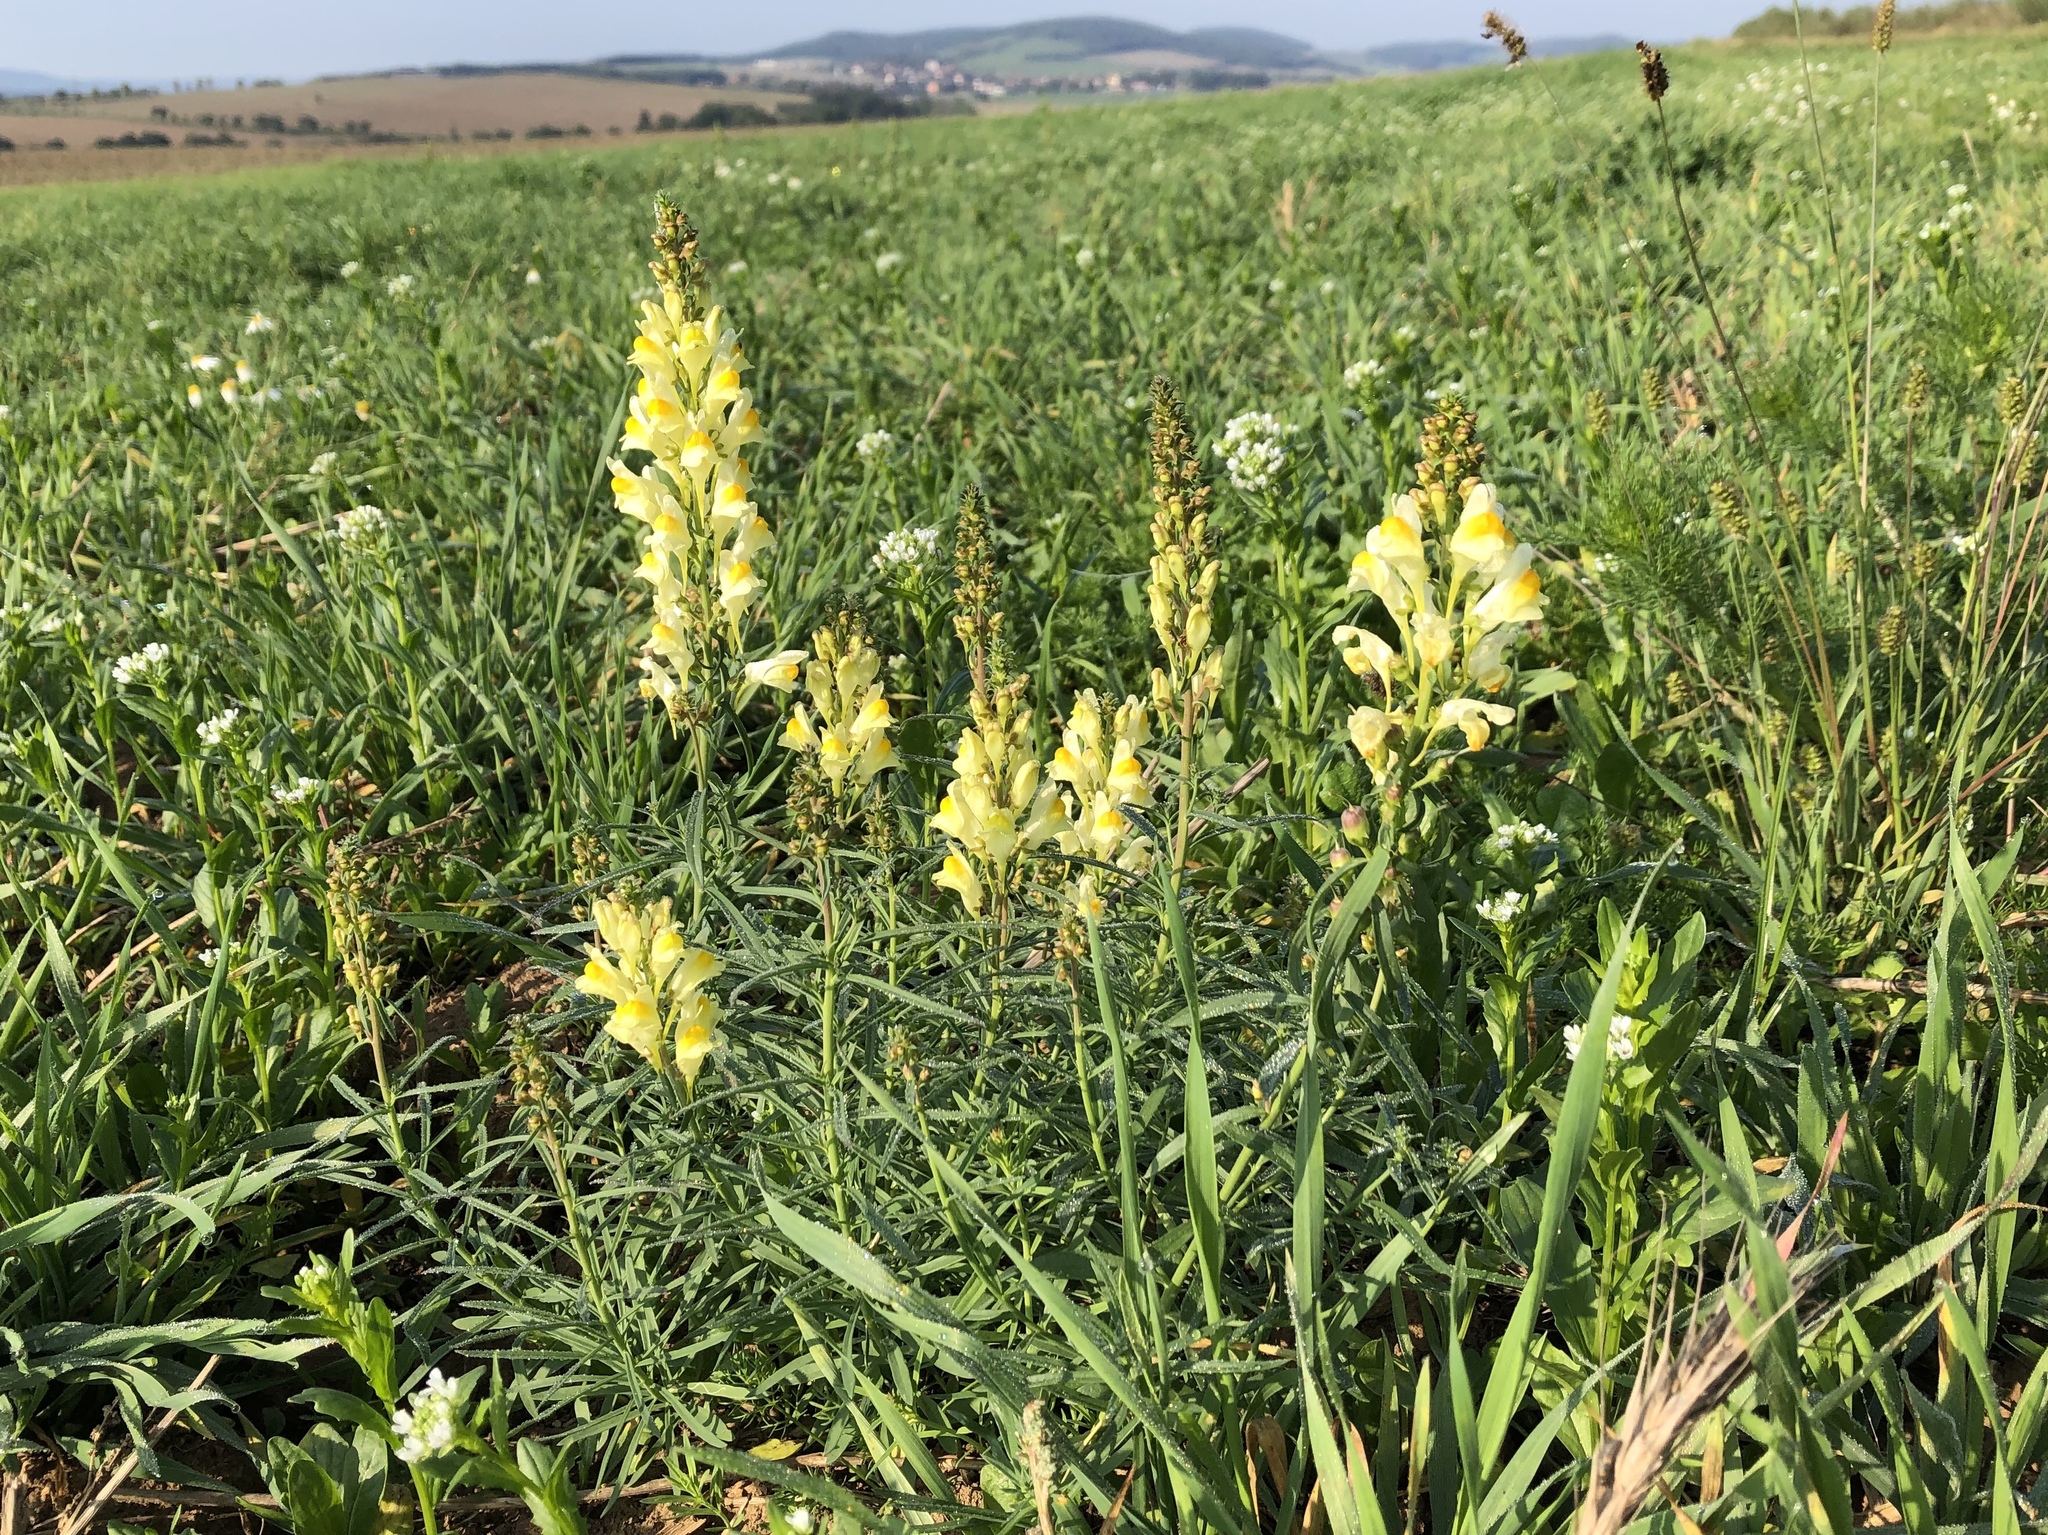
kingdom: Plantae
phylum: Tracheophyta
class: Magnoliopsida
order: Lamiales
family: Plantaginaceae
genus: Linaria
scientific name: Linaria vulgaris
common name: Butter and eggs
